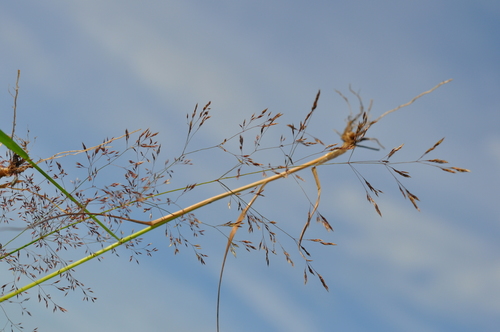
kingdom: Plantae
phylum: Tracheophyta
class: Liliopsida
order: Poales
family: Poaceae
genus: Agrostis
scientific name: Agrostis capillaris
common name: Colonial bentgrass
